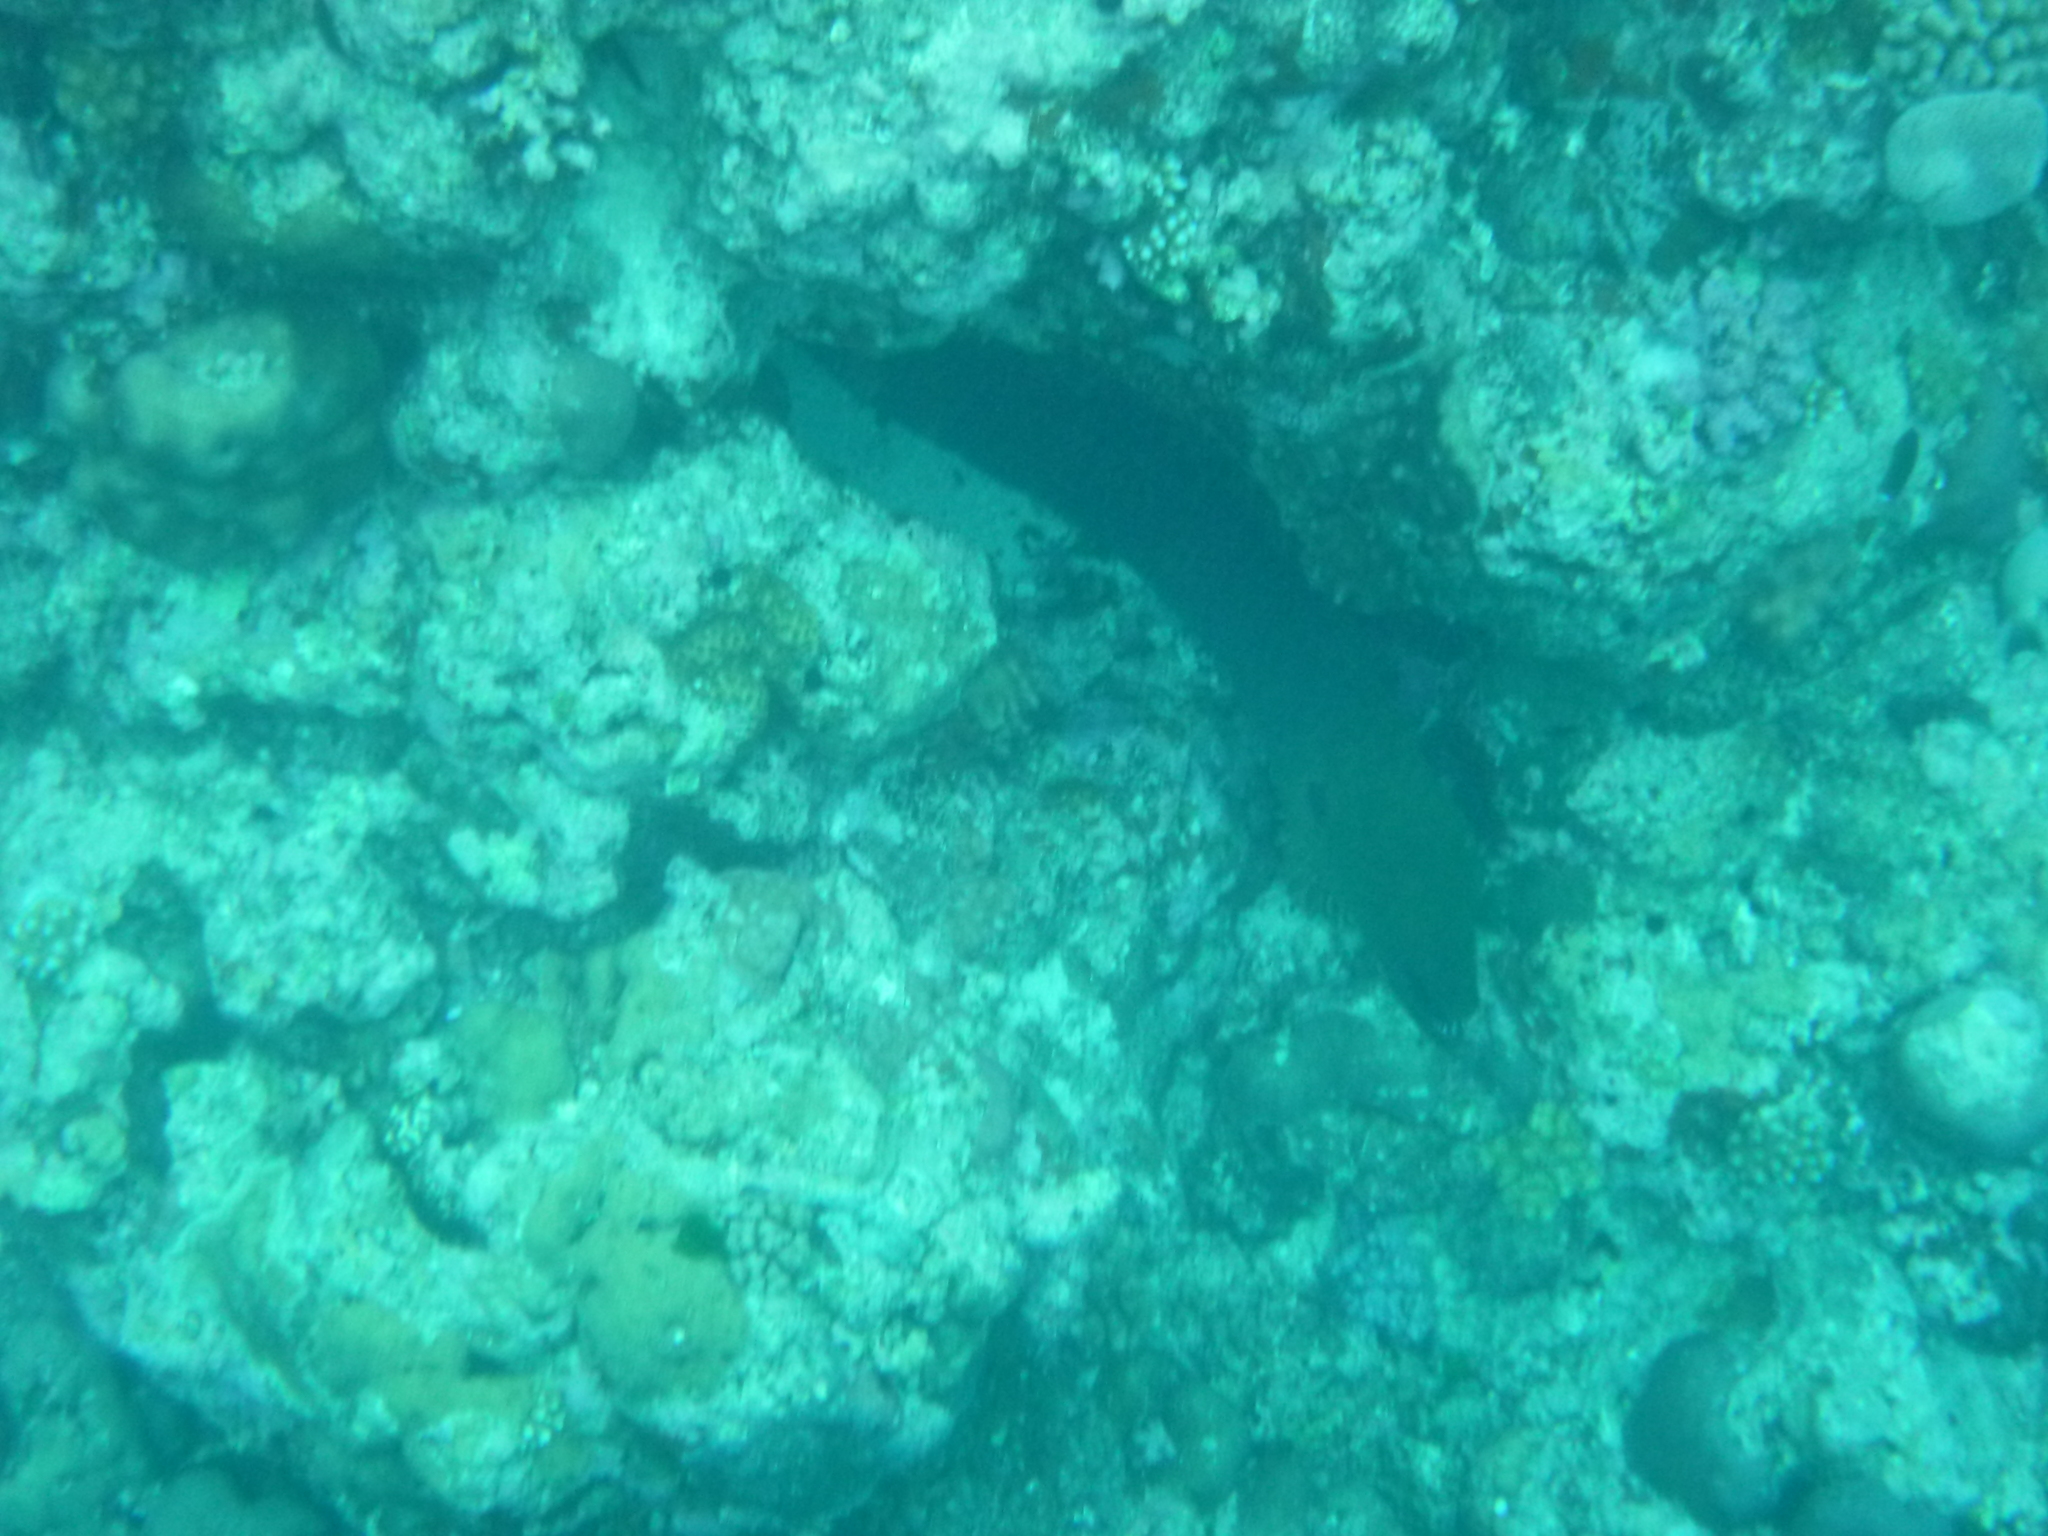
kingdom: Animalia
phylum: Chordata
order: Anguilliformes
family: Muraenidae
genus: Gymnothorax
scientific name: Gymnothorax javanicus
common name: Giant moray
